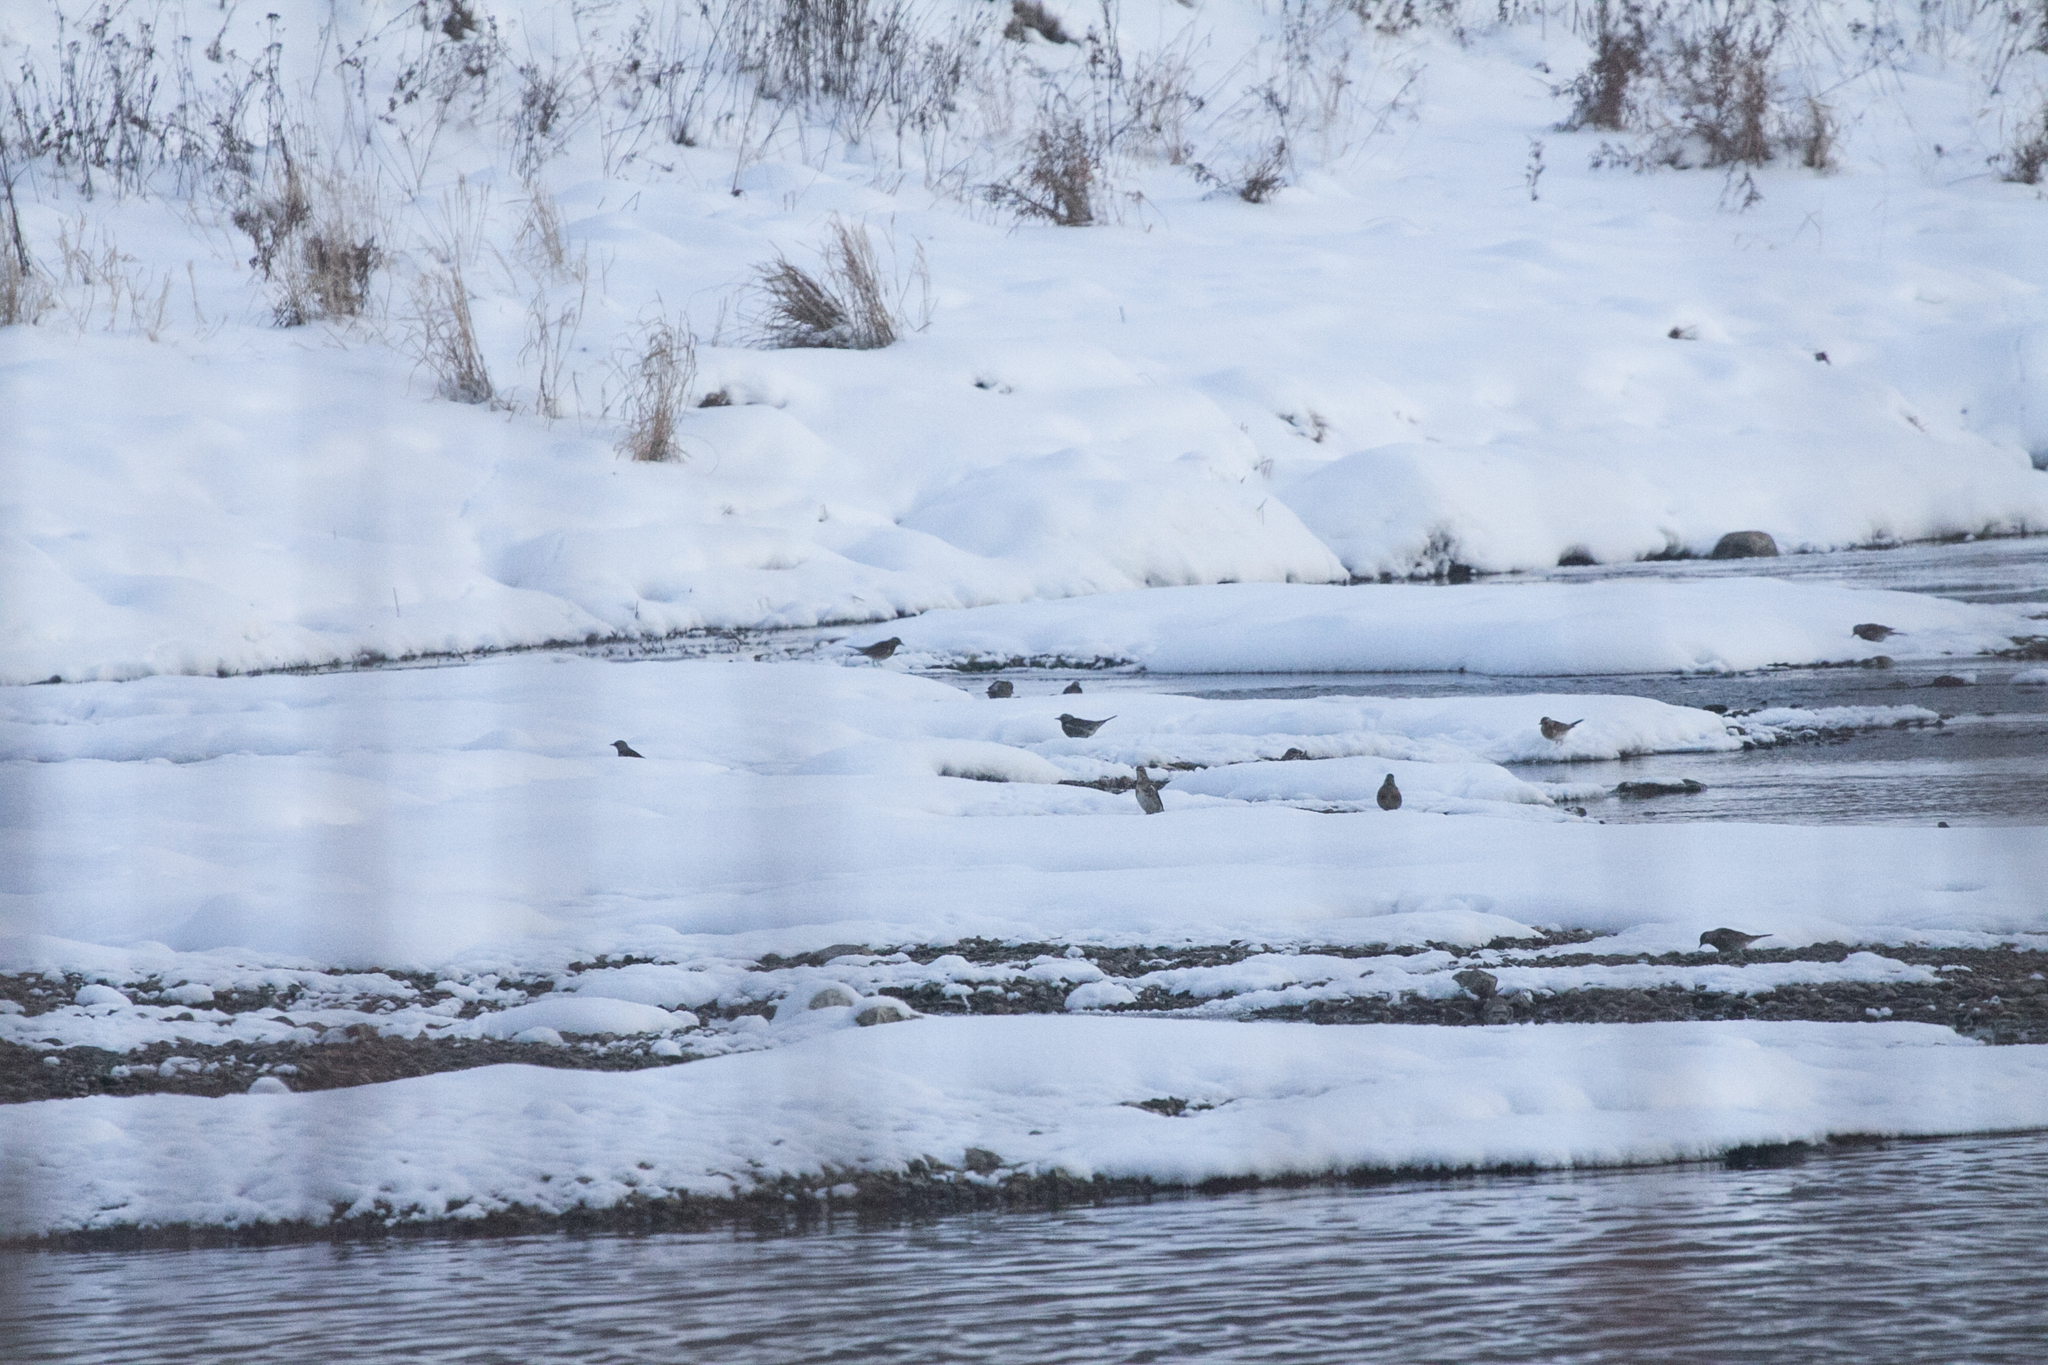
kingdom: Animalia
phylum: Chordata
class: Aves
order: Passeriformes
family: Turdidae
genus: Turdus
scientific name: Turdus pilaris
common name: Fieldfare
